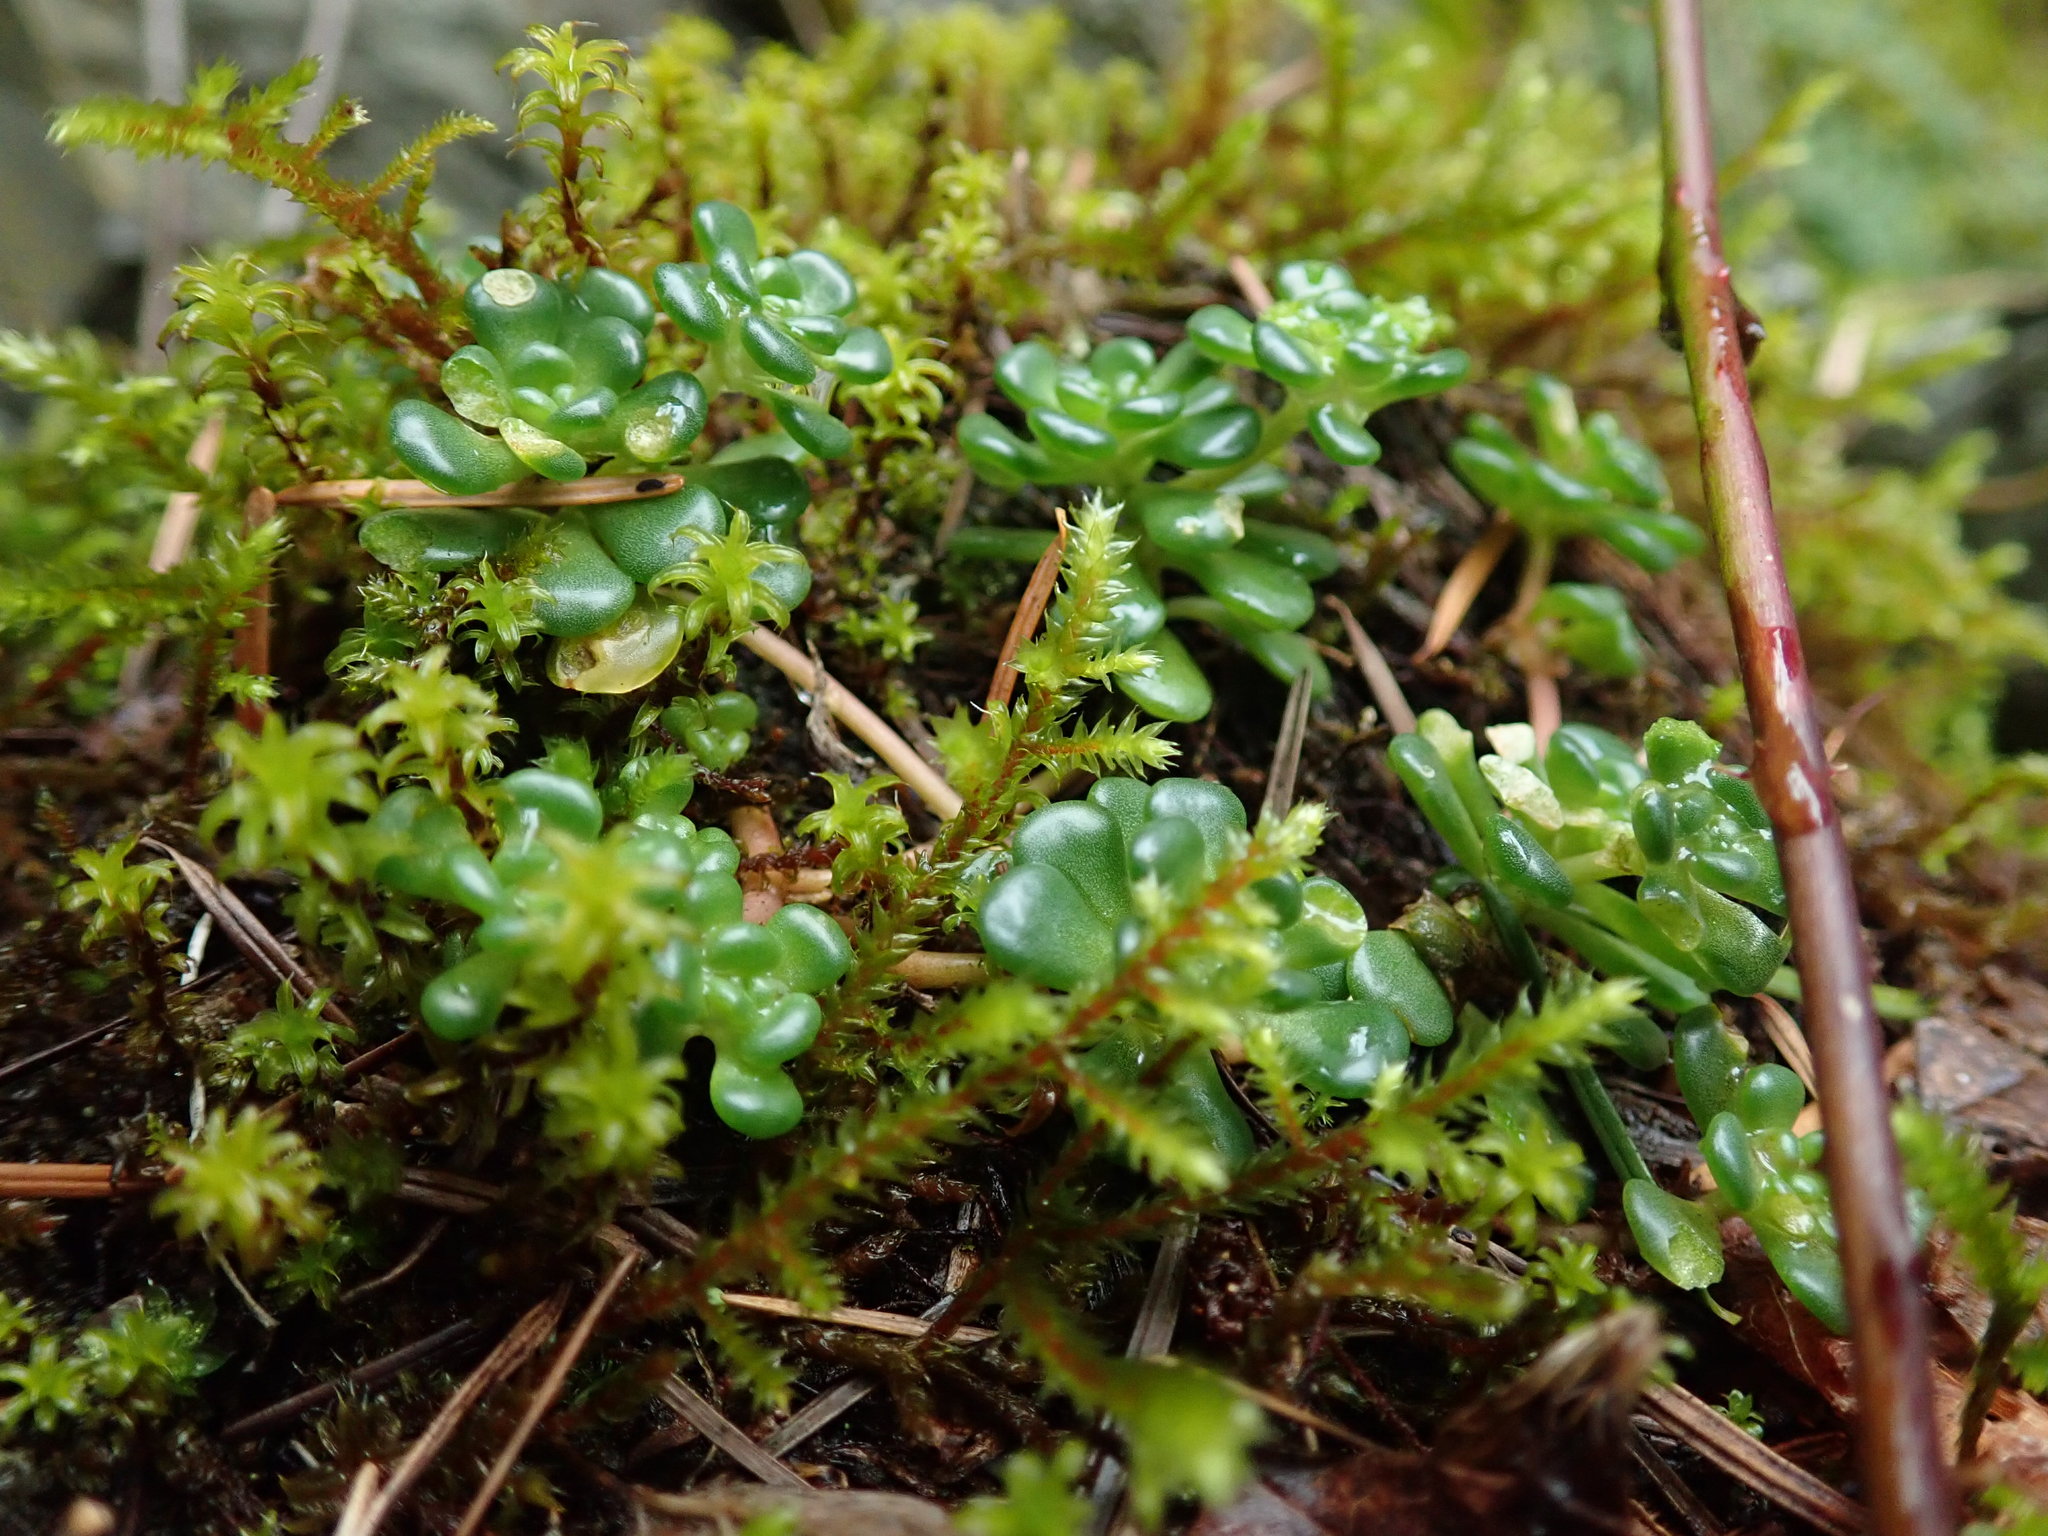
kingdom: Plantae
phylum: Tracheophyta
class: Magnoliopsida
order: Saxifragales
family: Crassulaceae
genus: Sedum
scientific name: Sedum oreganum
